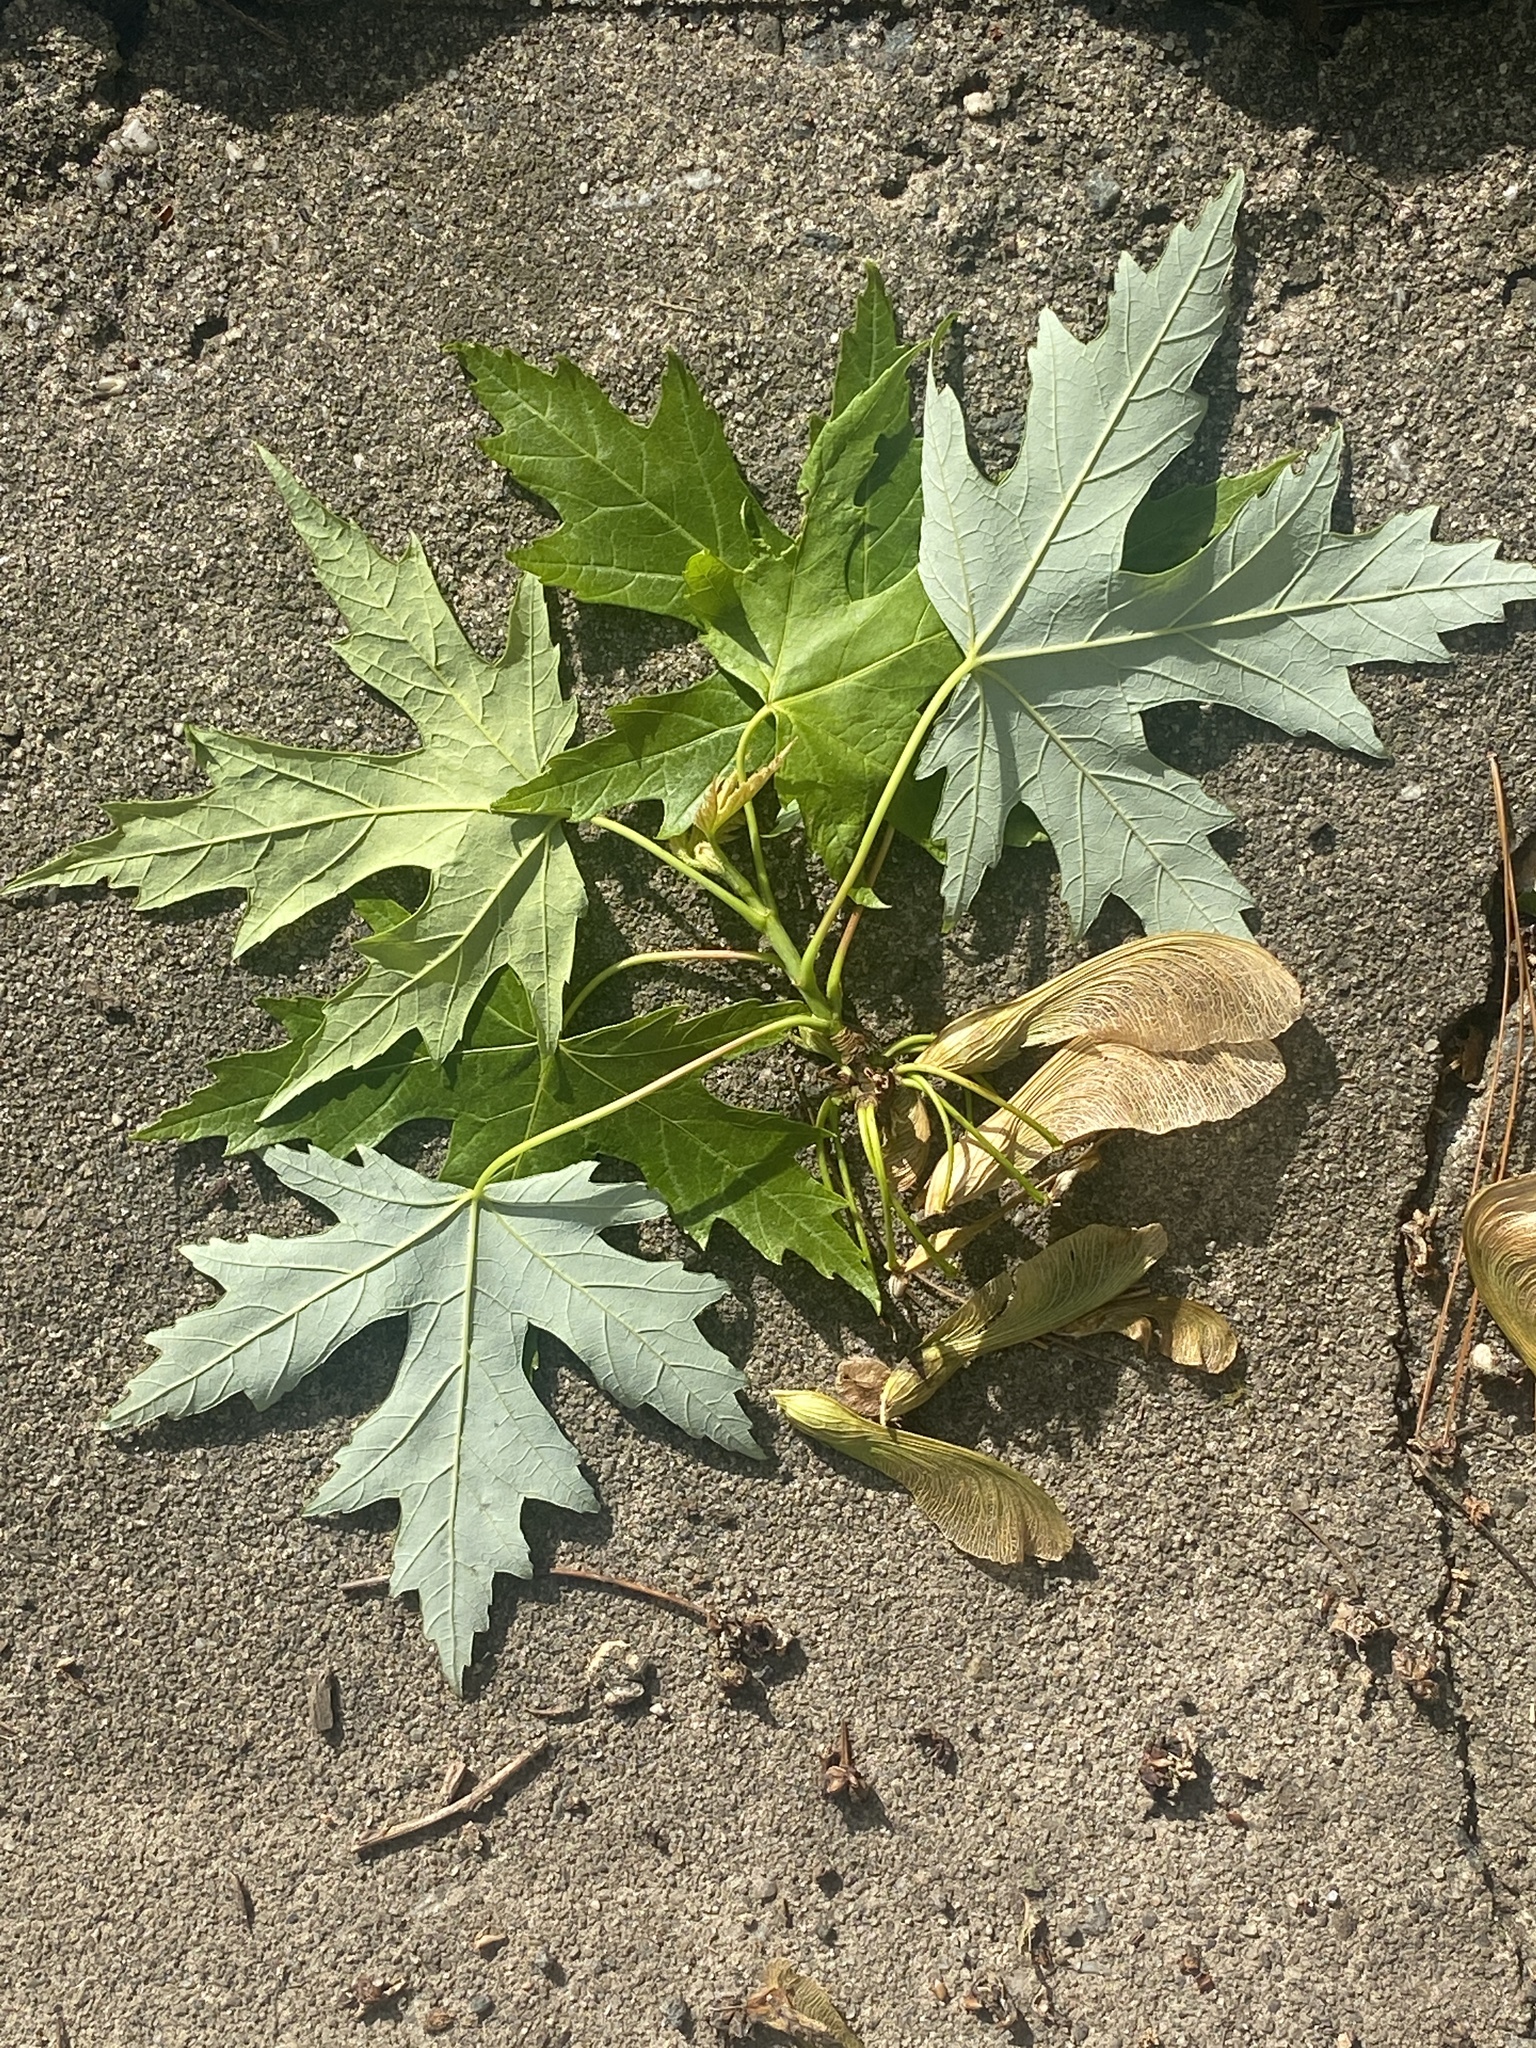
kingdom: Plantae
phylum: Tracheophyta
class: Magnoliopsida
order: Sapindales
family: Sapindaceae
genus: Acer
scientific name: Acer saccharinum
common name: Silver maple
